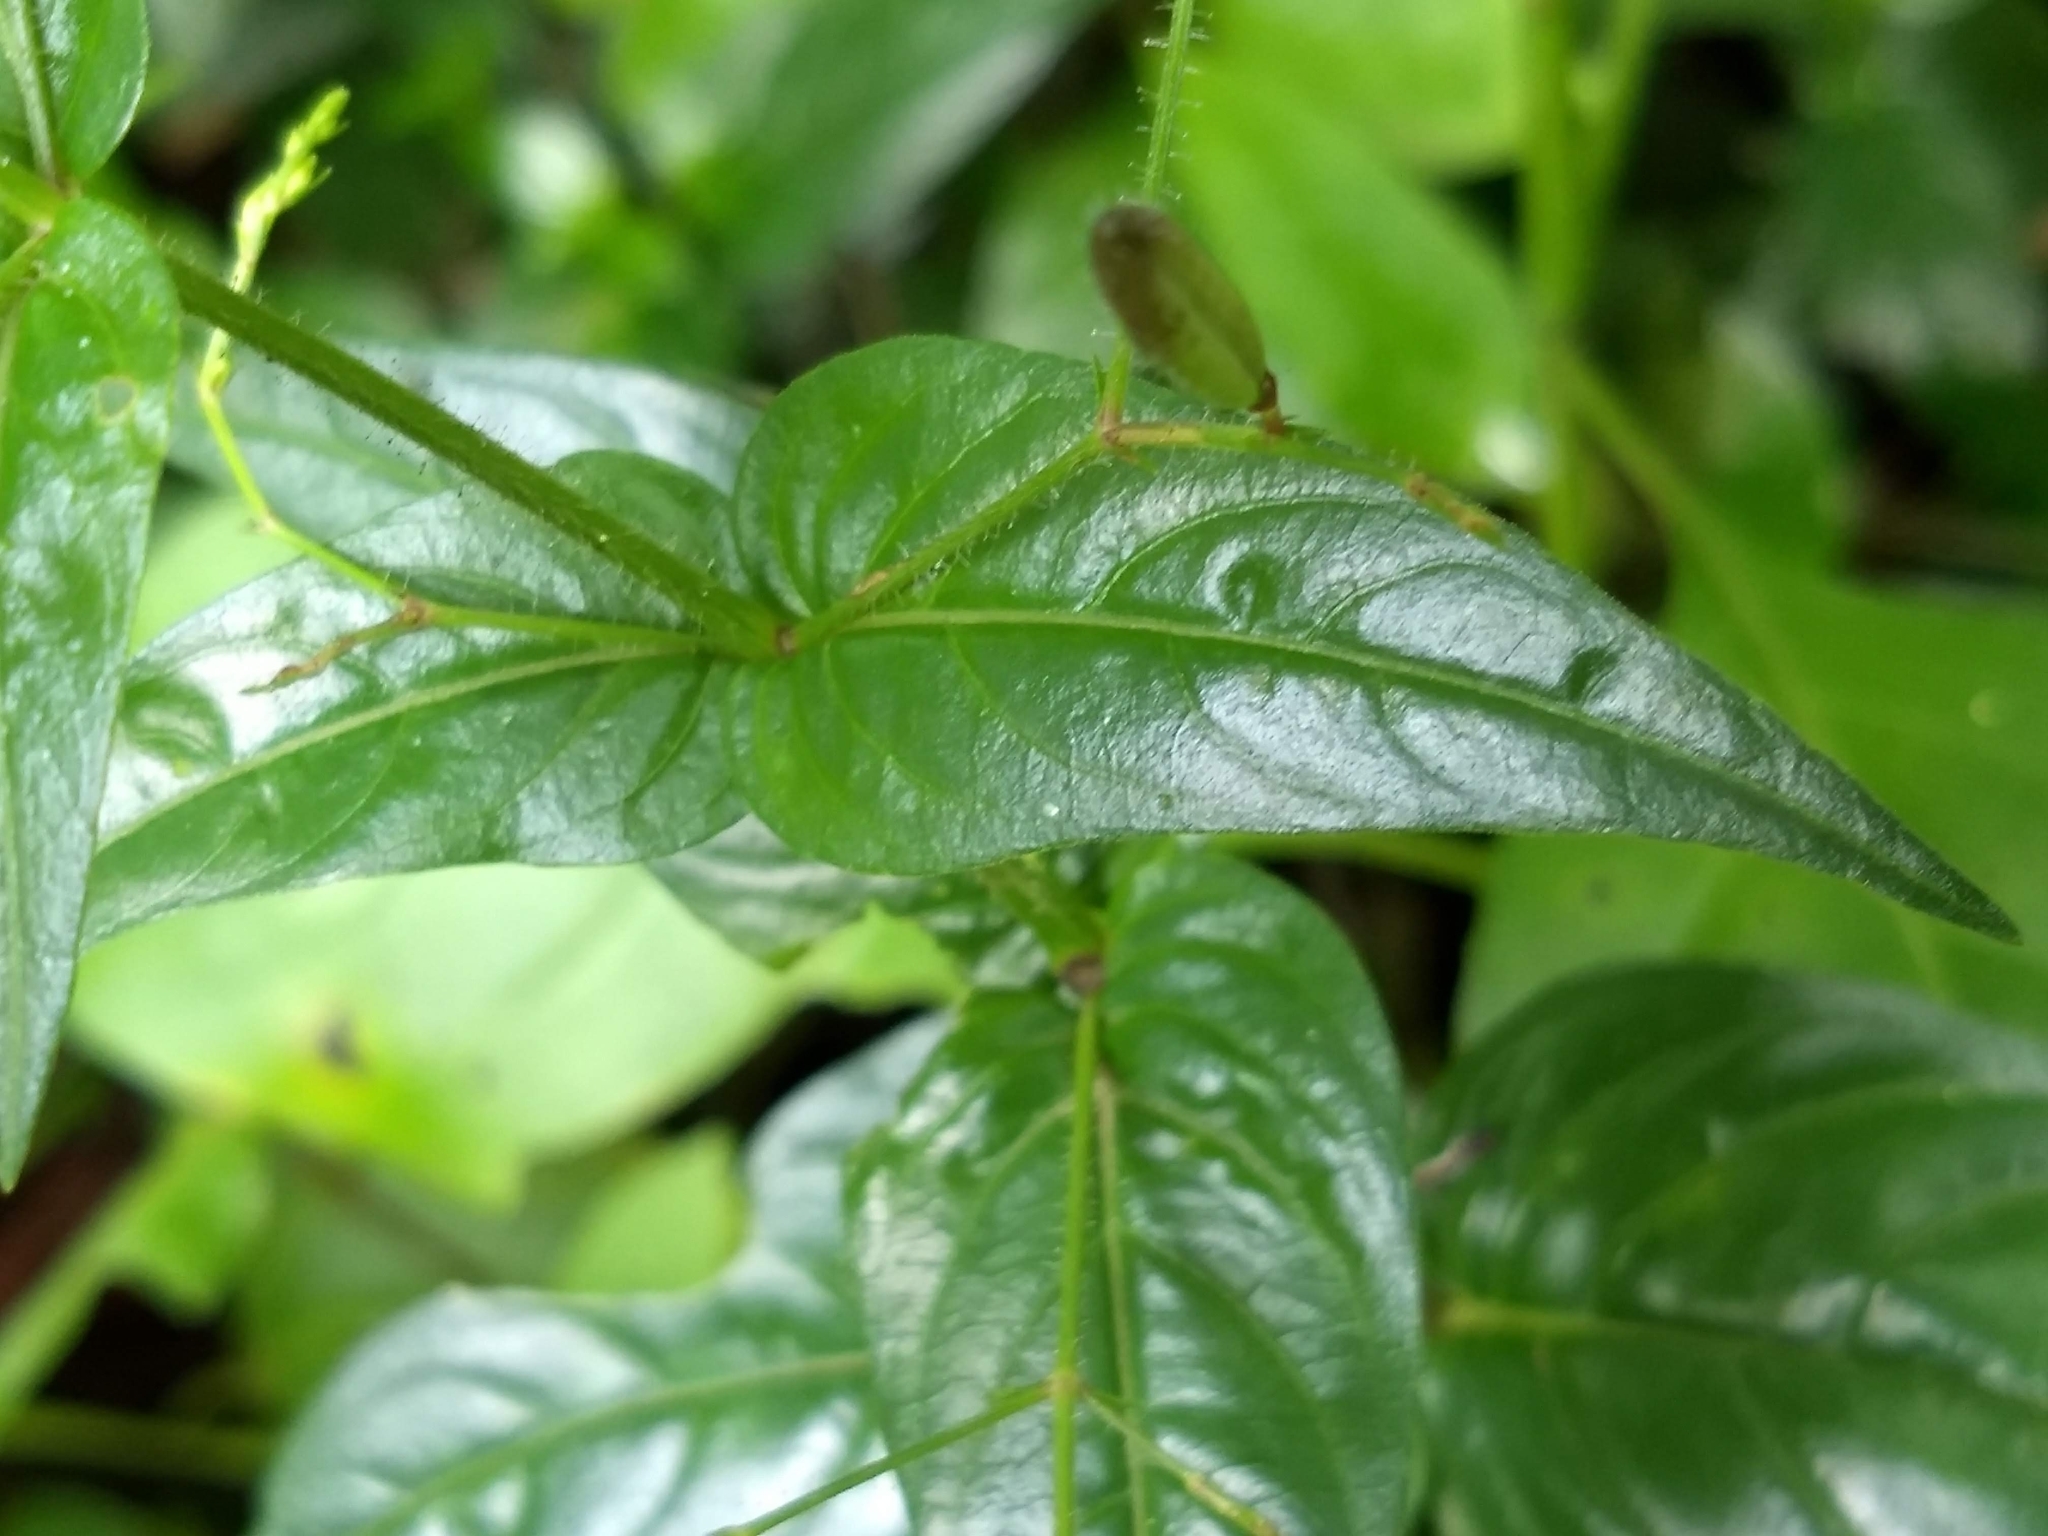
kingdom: Plantae
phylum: Tracheophyta
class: Magnoliopsida
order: Lamiales
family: Acanthaceae
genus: Andrographis
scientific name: Andrographis paniculata
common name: Green chireta
